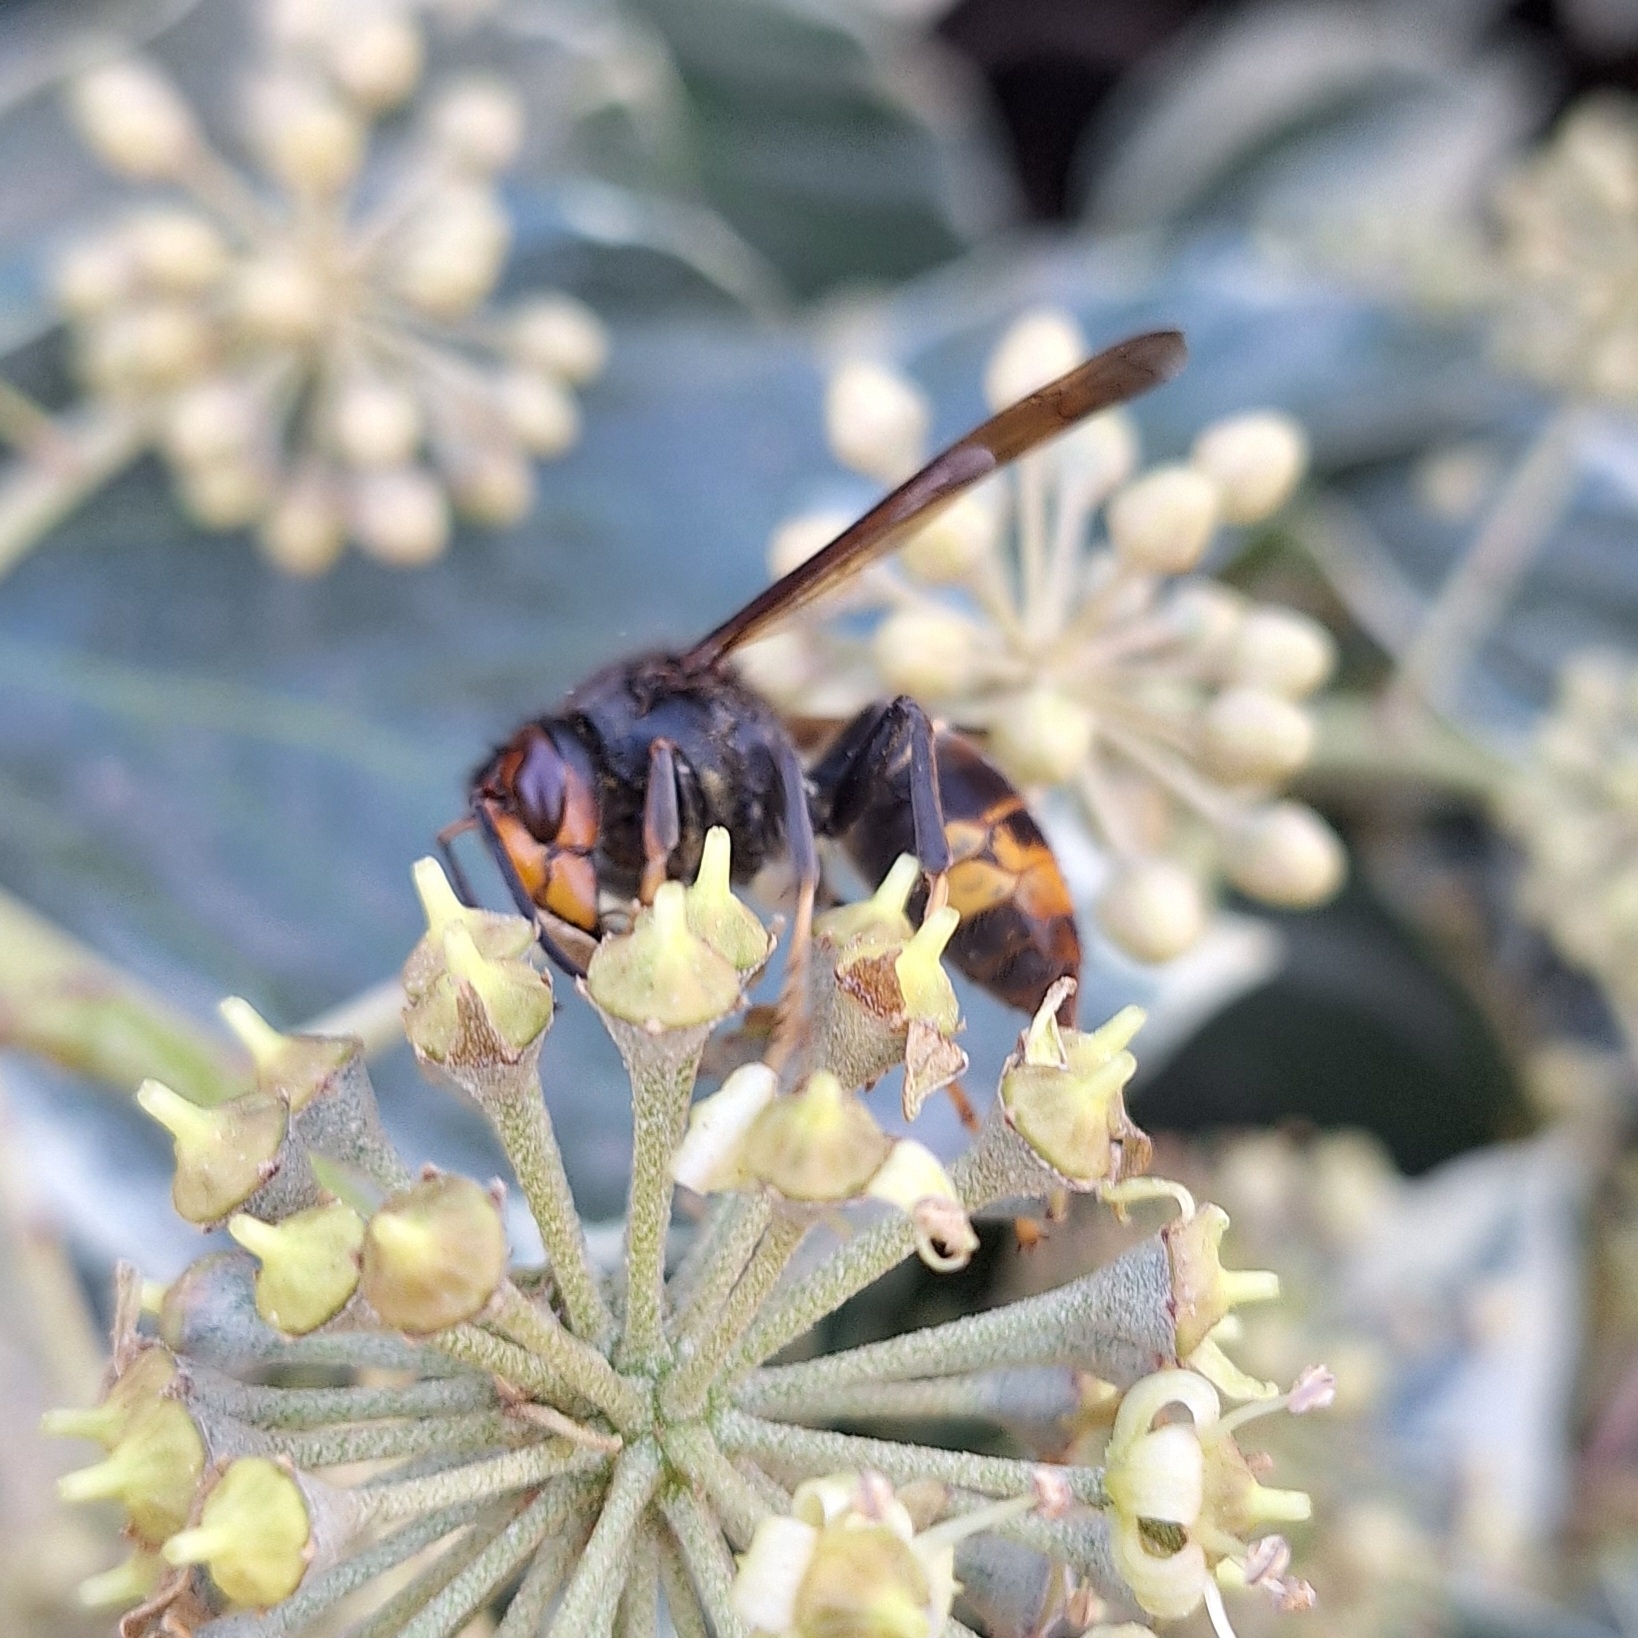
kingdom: Animalia
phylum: Arthropoda
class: Insecta
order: Hymenoptera
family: Vespidae
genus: Vespa
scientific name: Vespa velutina
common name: Asian hornet
